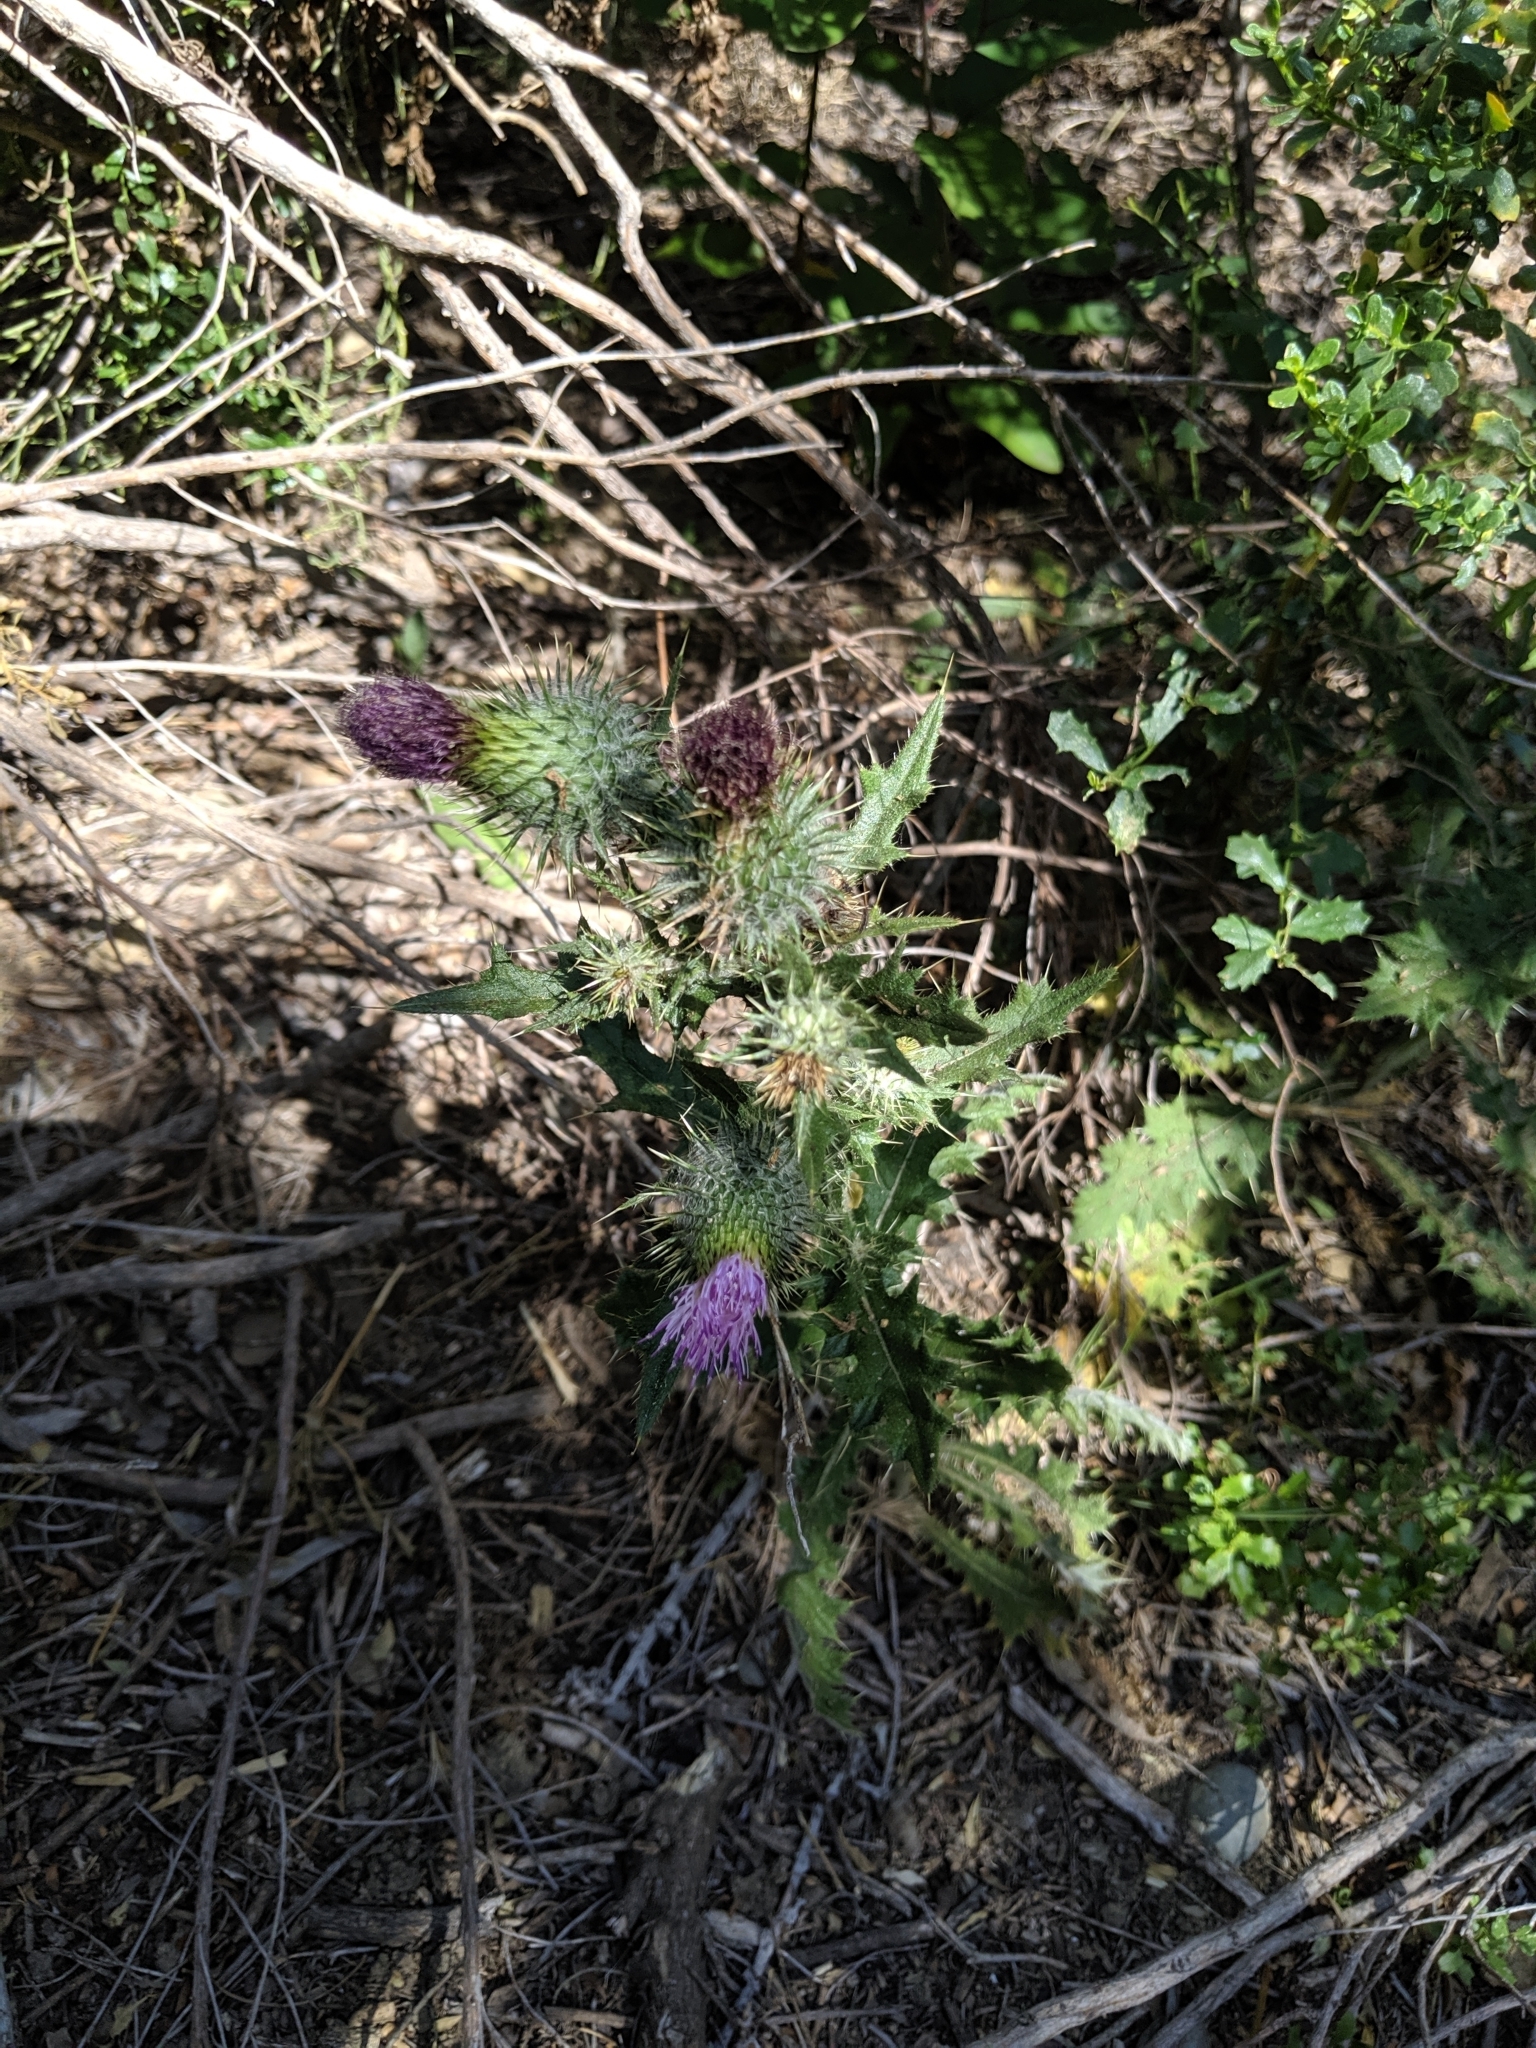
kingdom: Plantae
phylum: Tracheophyta
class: Magnoliopsida
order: Asterales
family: Asteraceae
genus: Cirsium
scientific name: Cirsium vulgare
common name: Bull thistle
